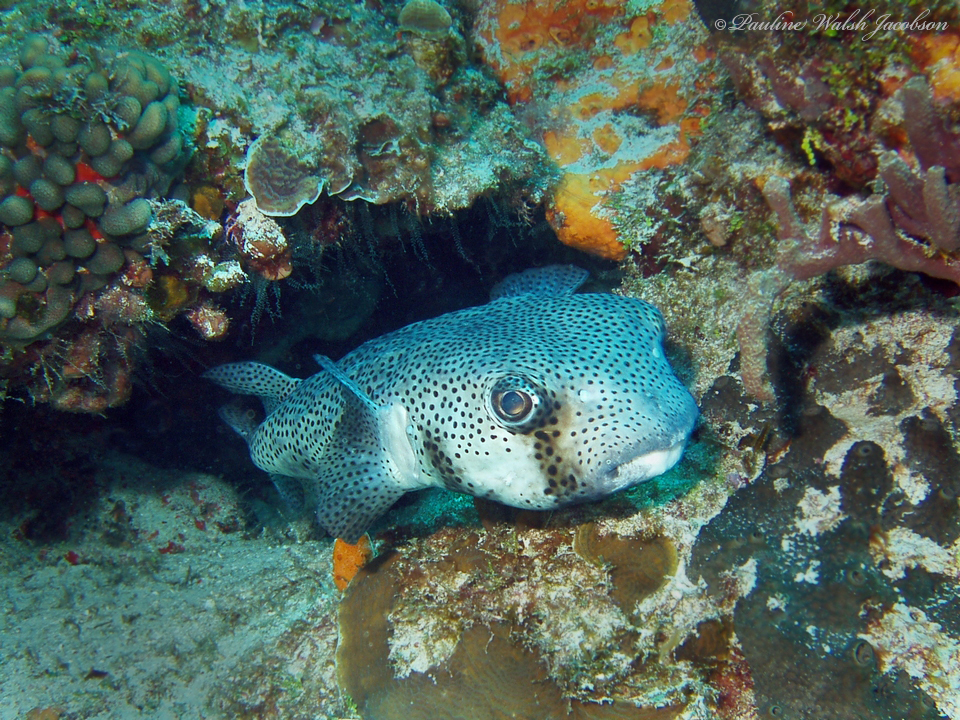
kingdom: Animalia
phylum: Chordata
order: Tetraodontiformes
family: Diodontidae
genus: Chilomycterus
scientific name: Chilomycterus reticulatus
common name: Spotfin burrfish
